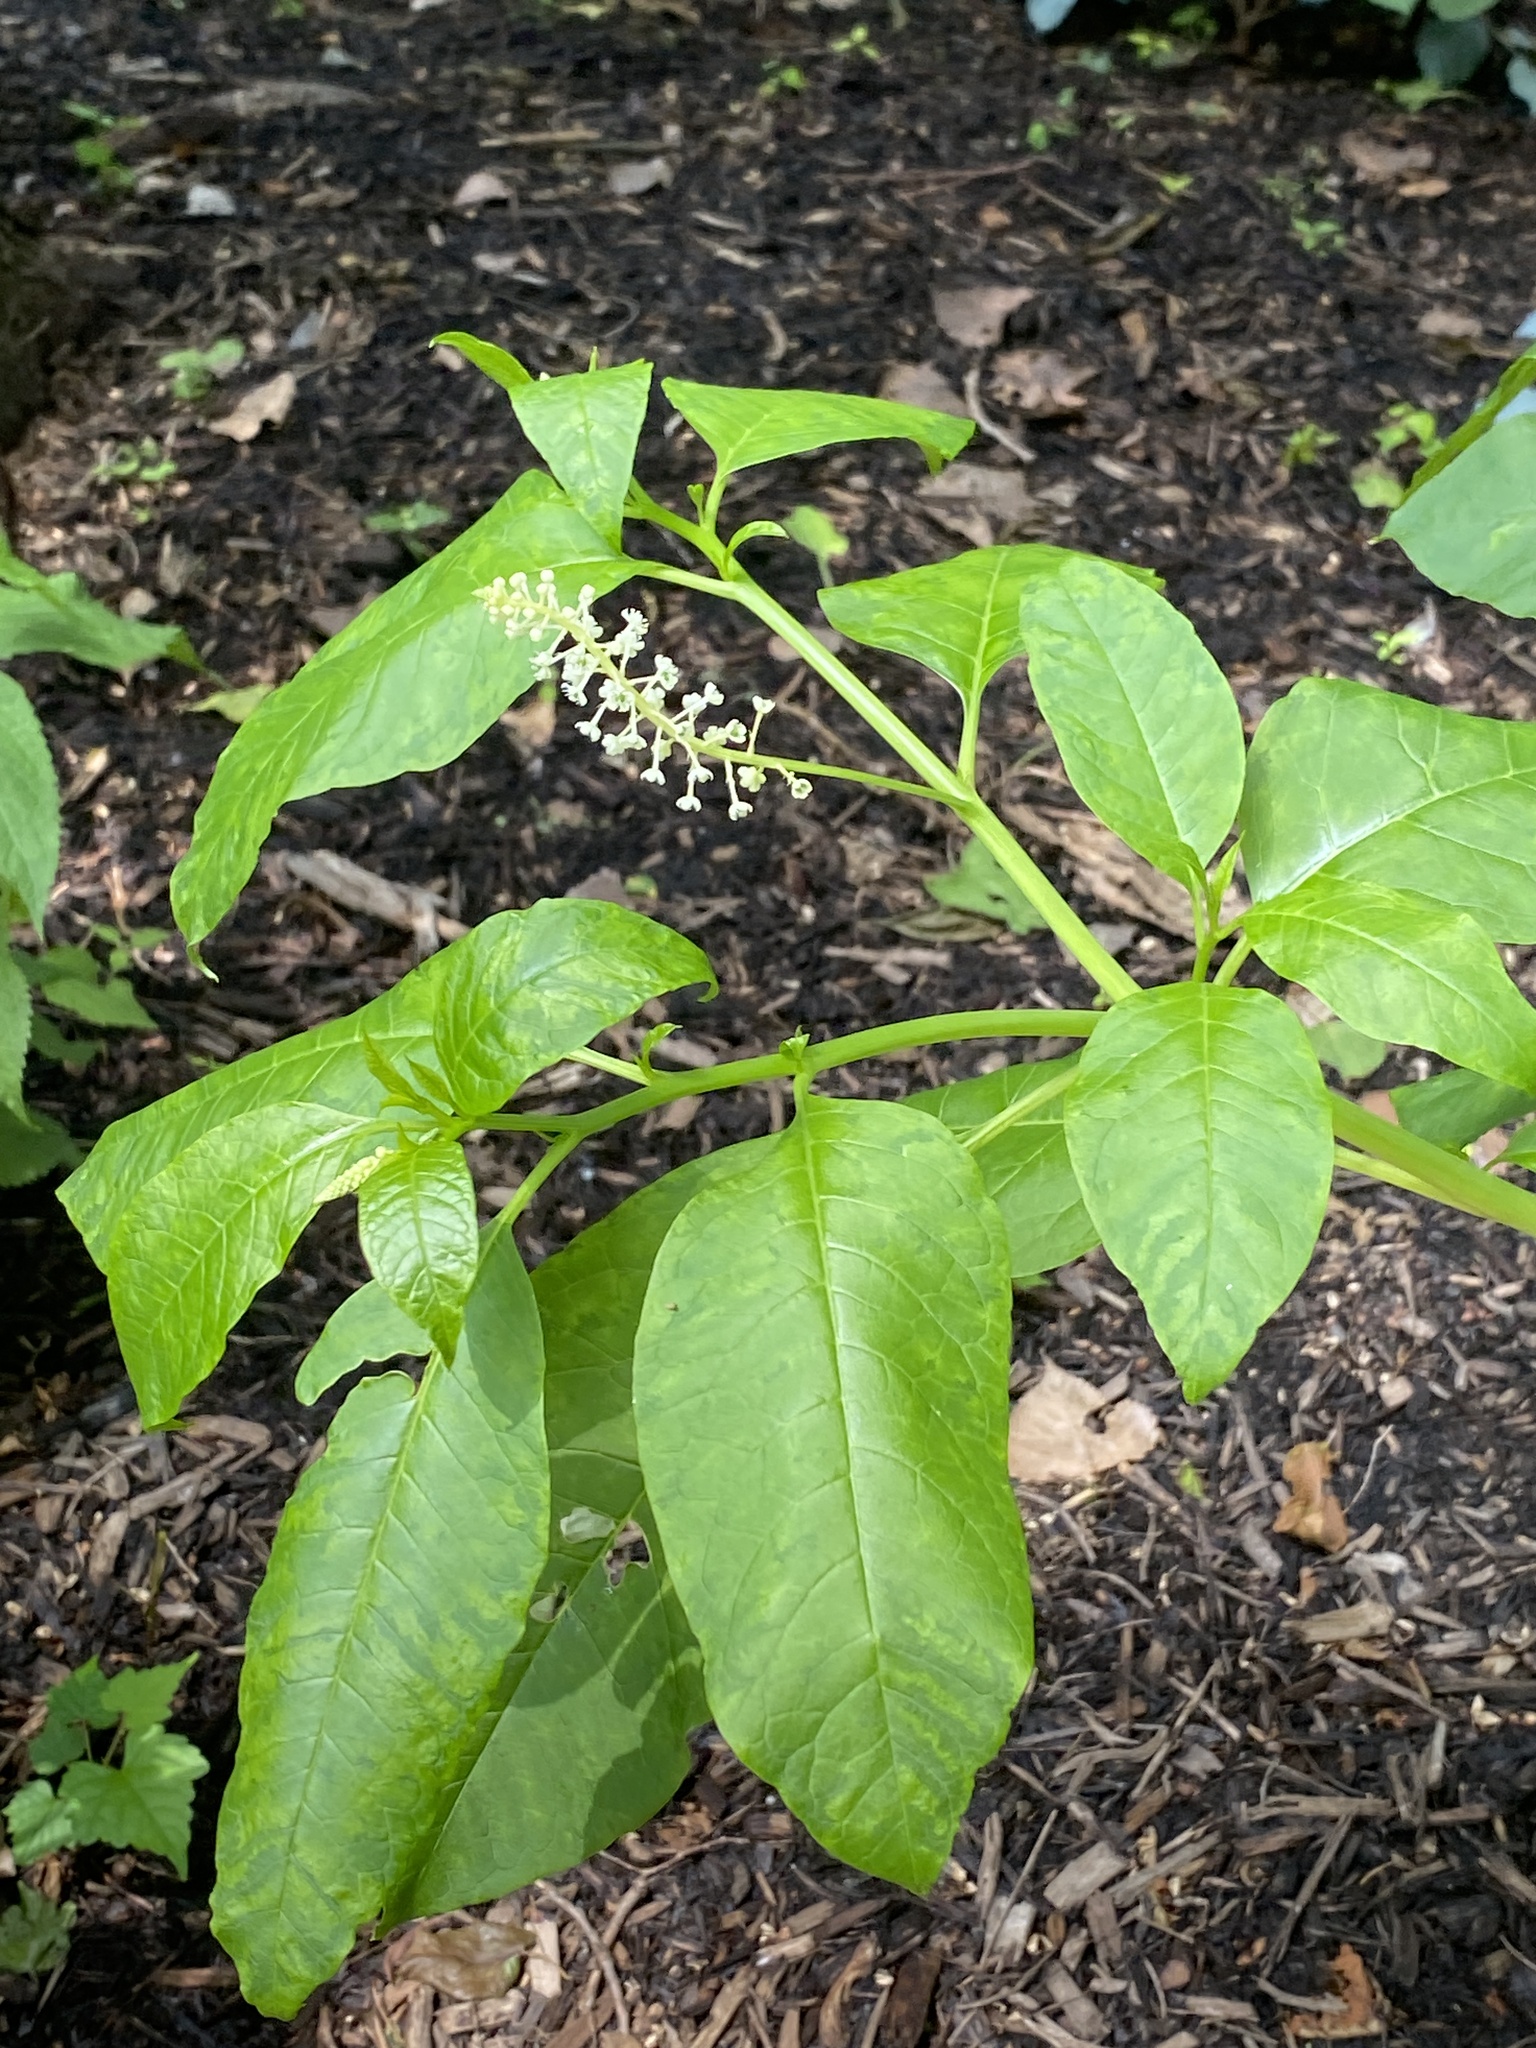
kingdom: Plantae
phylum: Tracheophyta
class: Magnoliopsida
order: Caryophyllales
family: Phytolaccaceae
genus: Phytolacca
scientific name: Phytolacca americana
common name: American pokeweed
